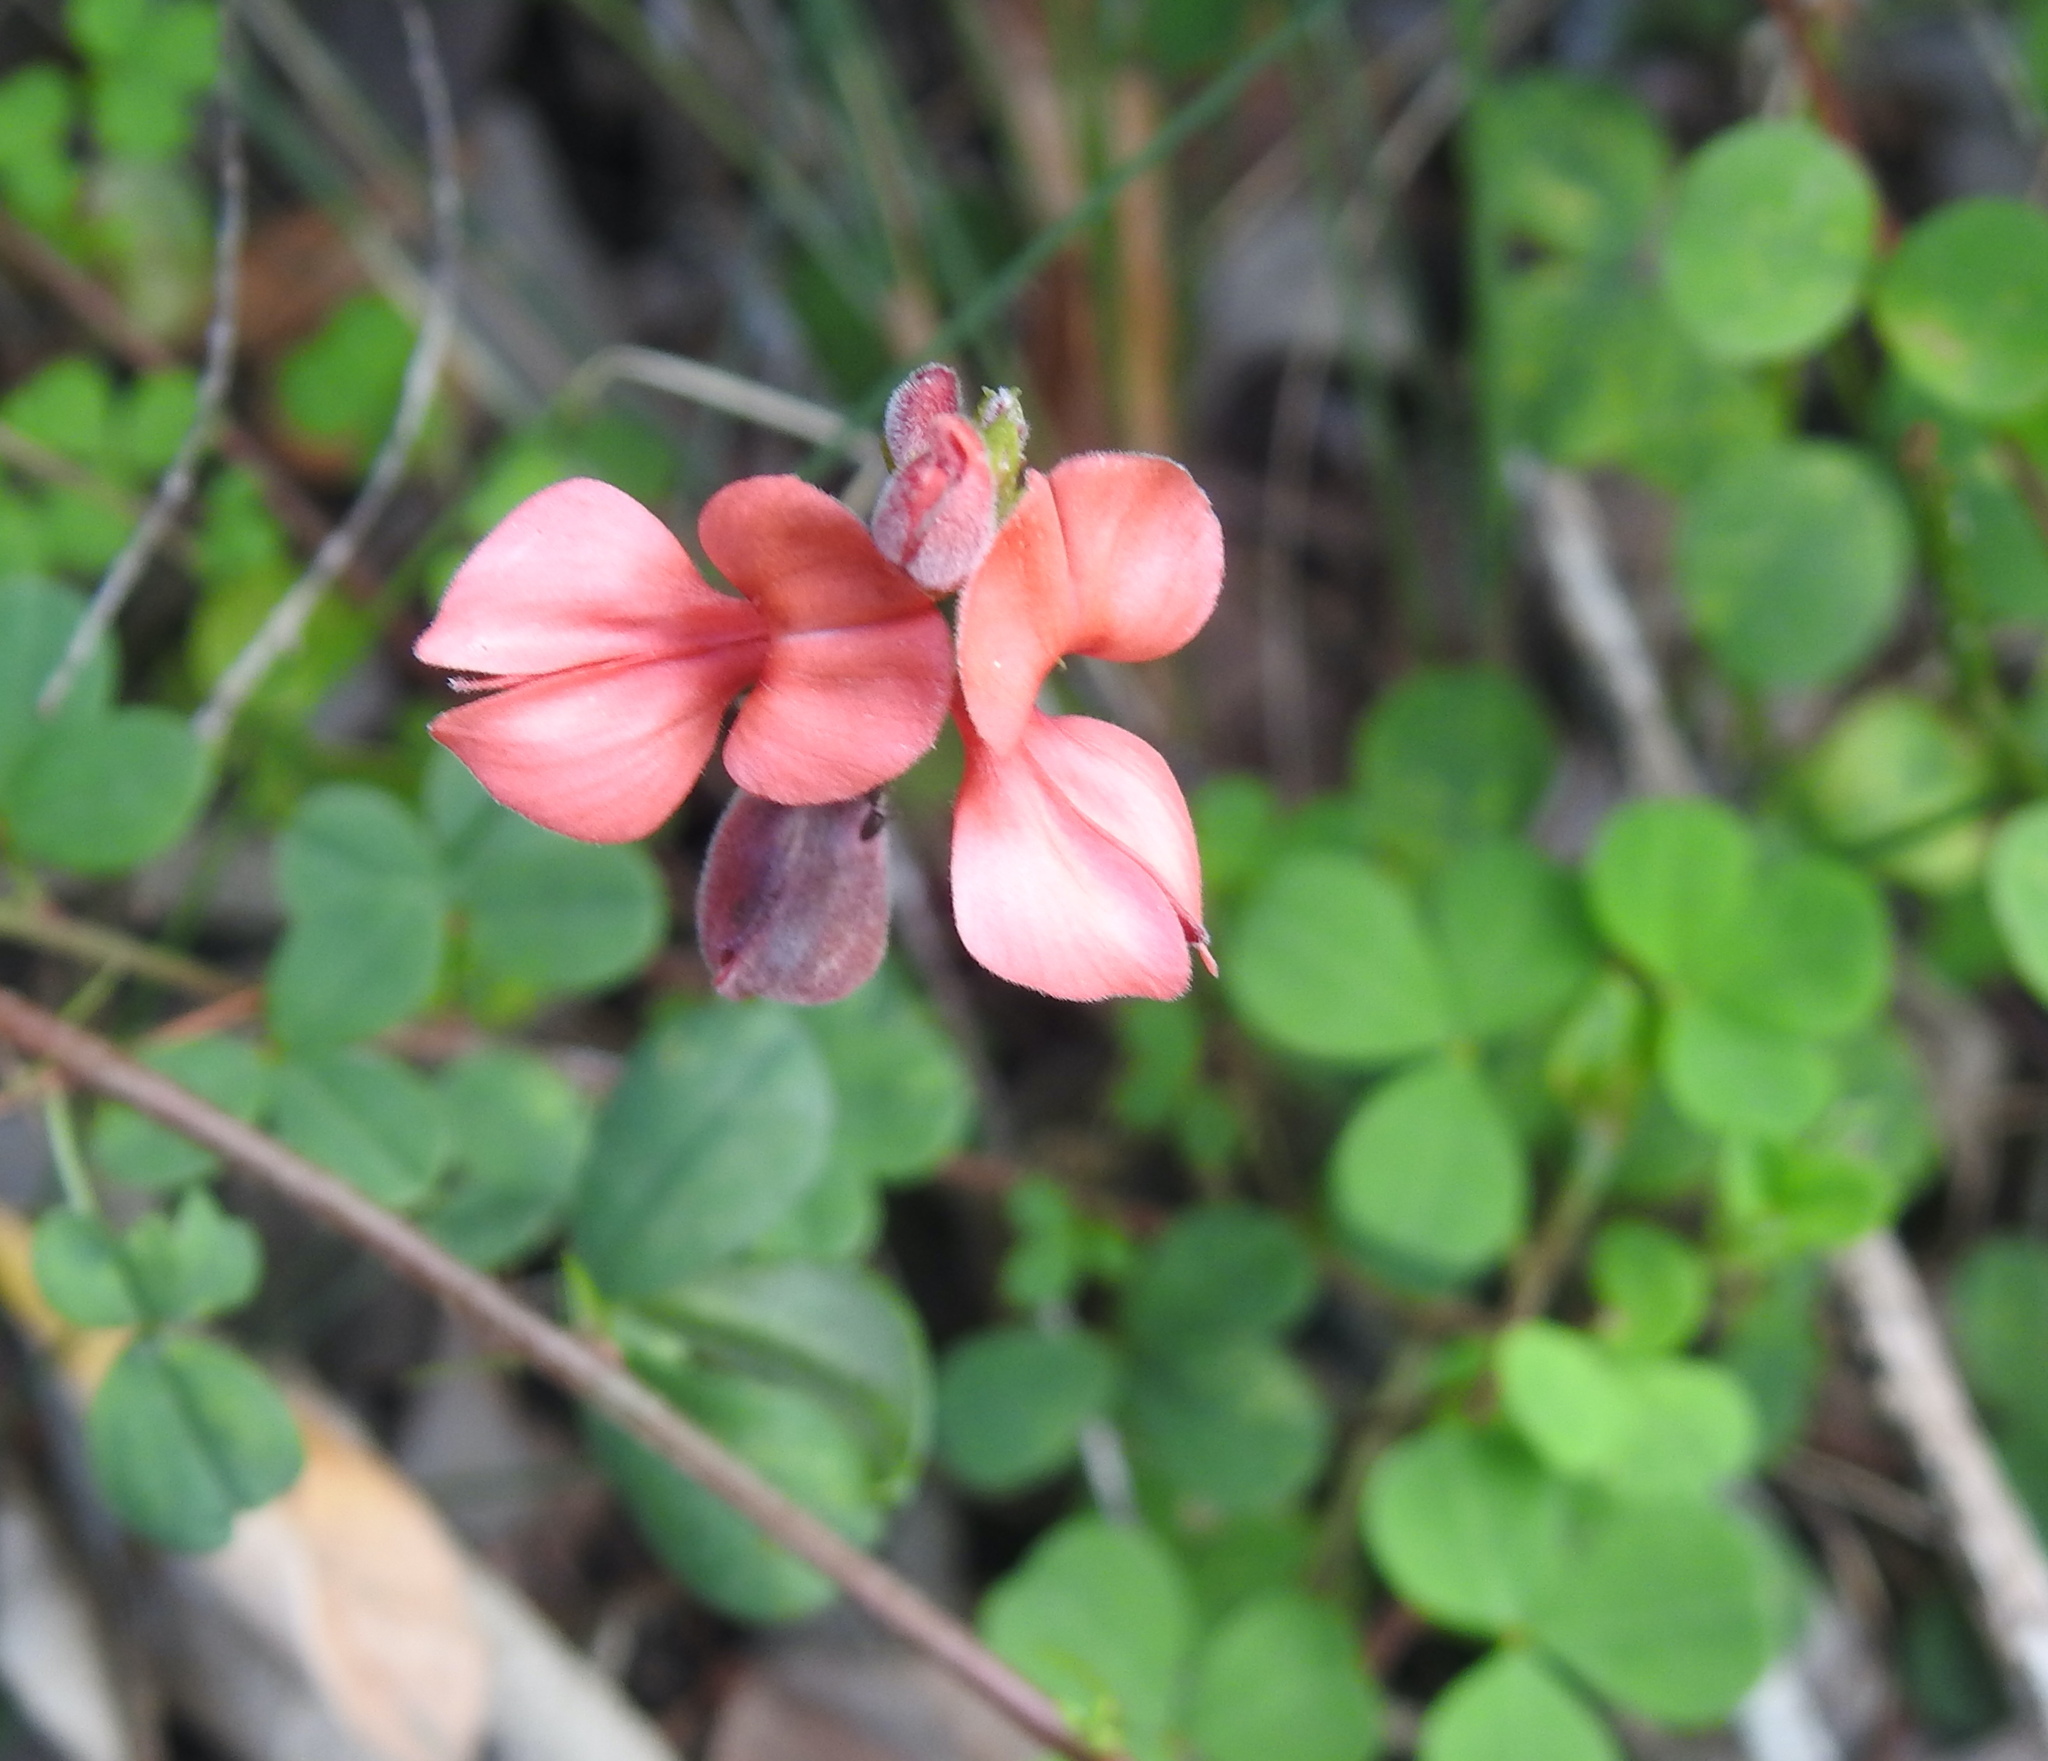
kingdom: Plantae
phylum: Tracheophyta
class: Magnoliopsida
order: Fabales
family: Fabaceae
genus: Indigofera
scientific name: Indigofera erecta
